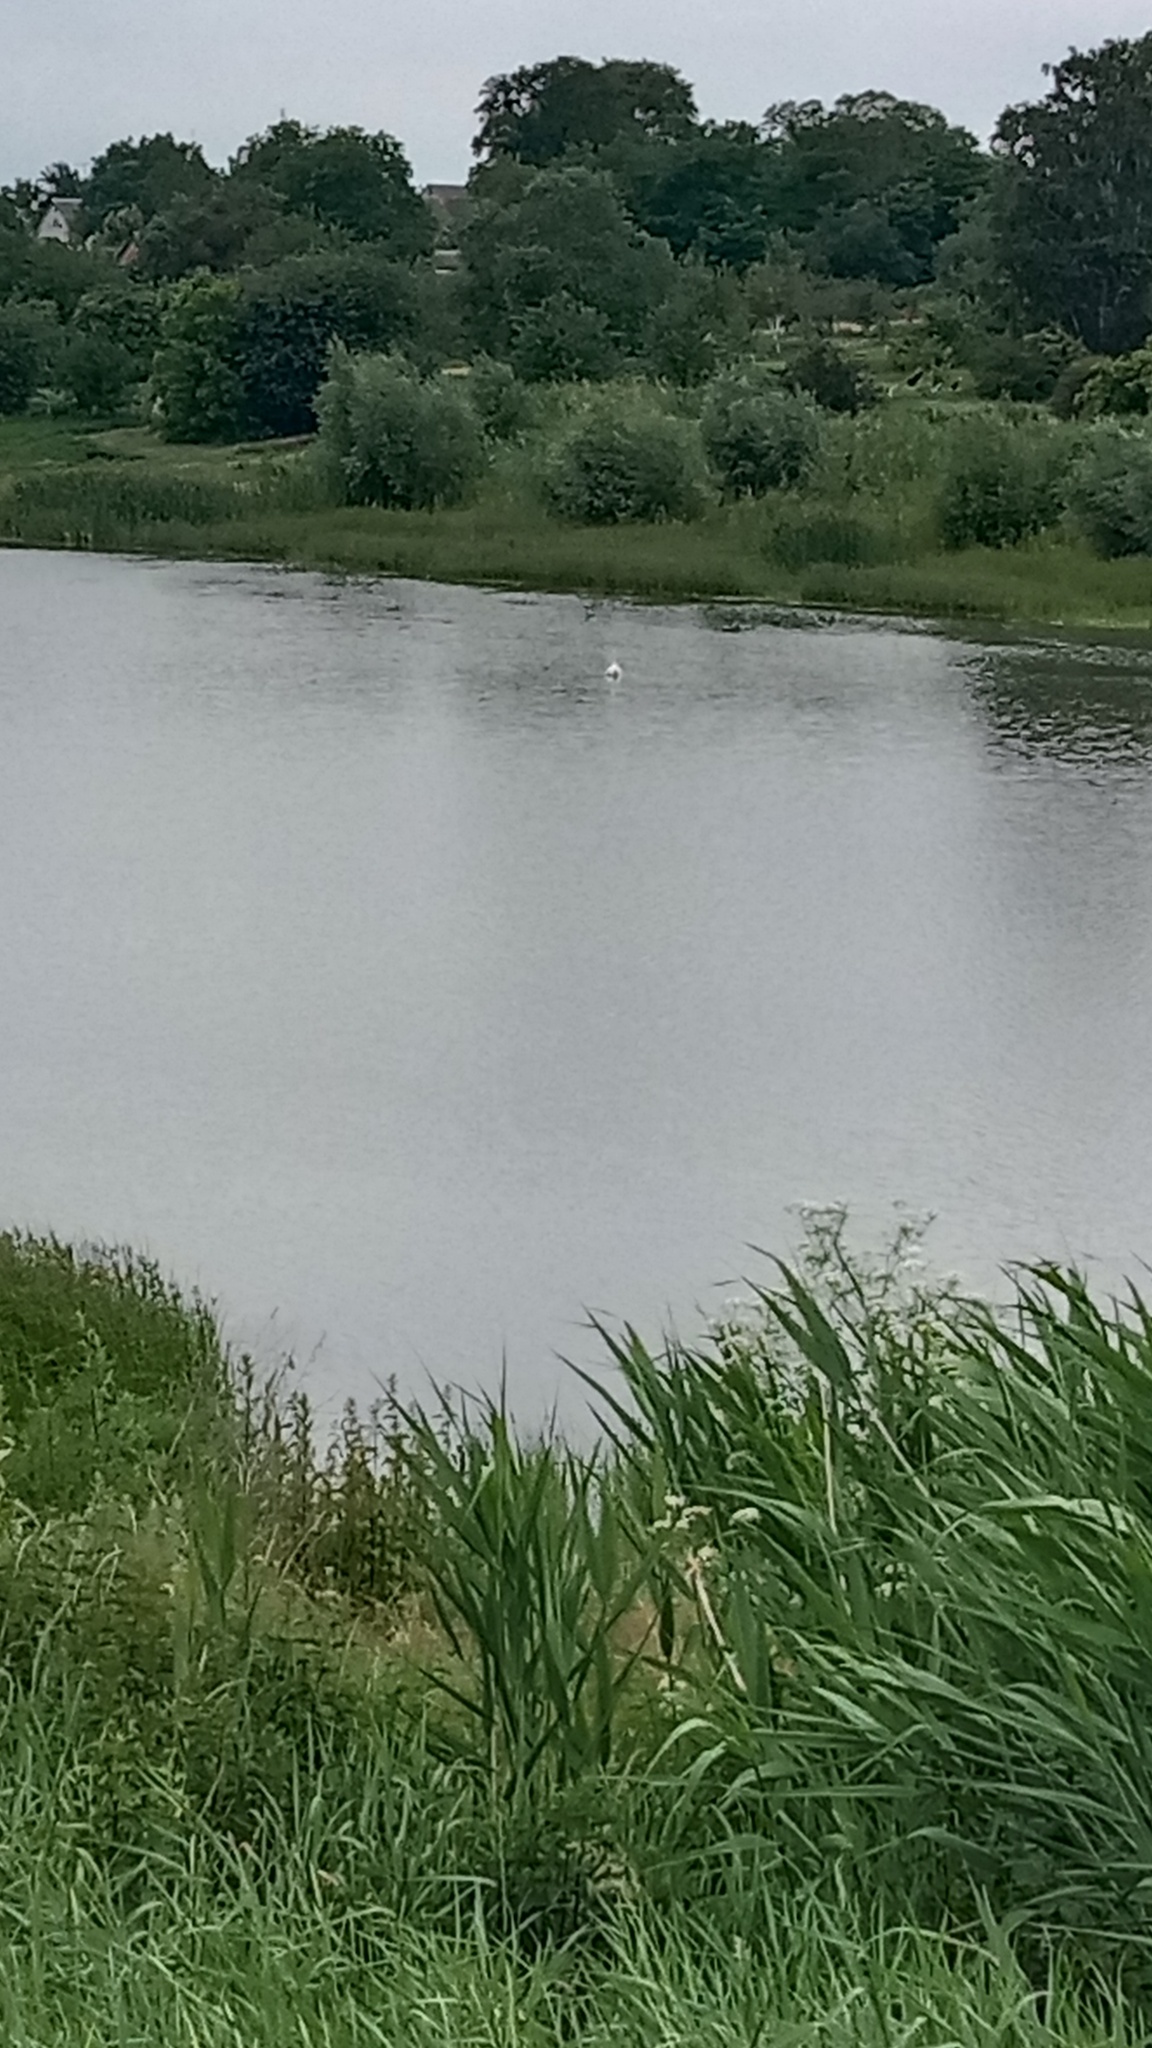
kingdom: Animalia
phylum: Chordata
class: Aves
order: Anseriformes
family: Anatidae
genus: Cygnus
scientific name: Cygnus olor
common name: Mute swan
